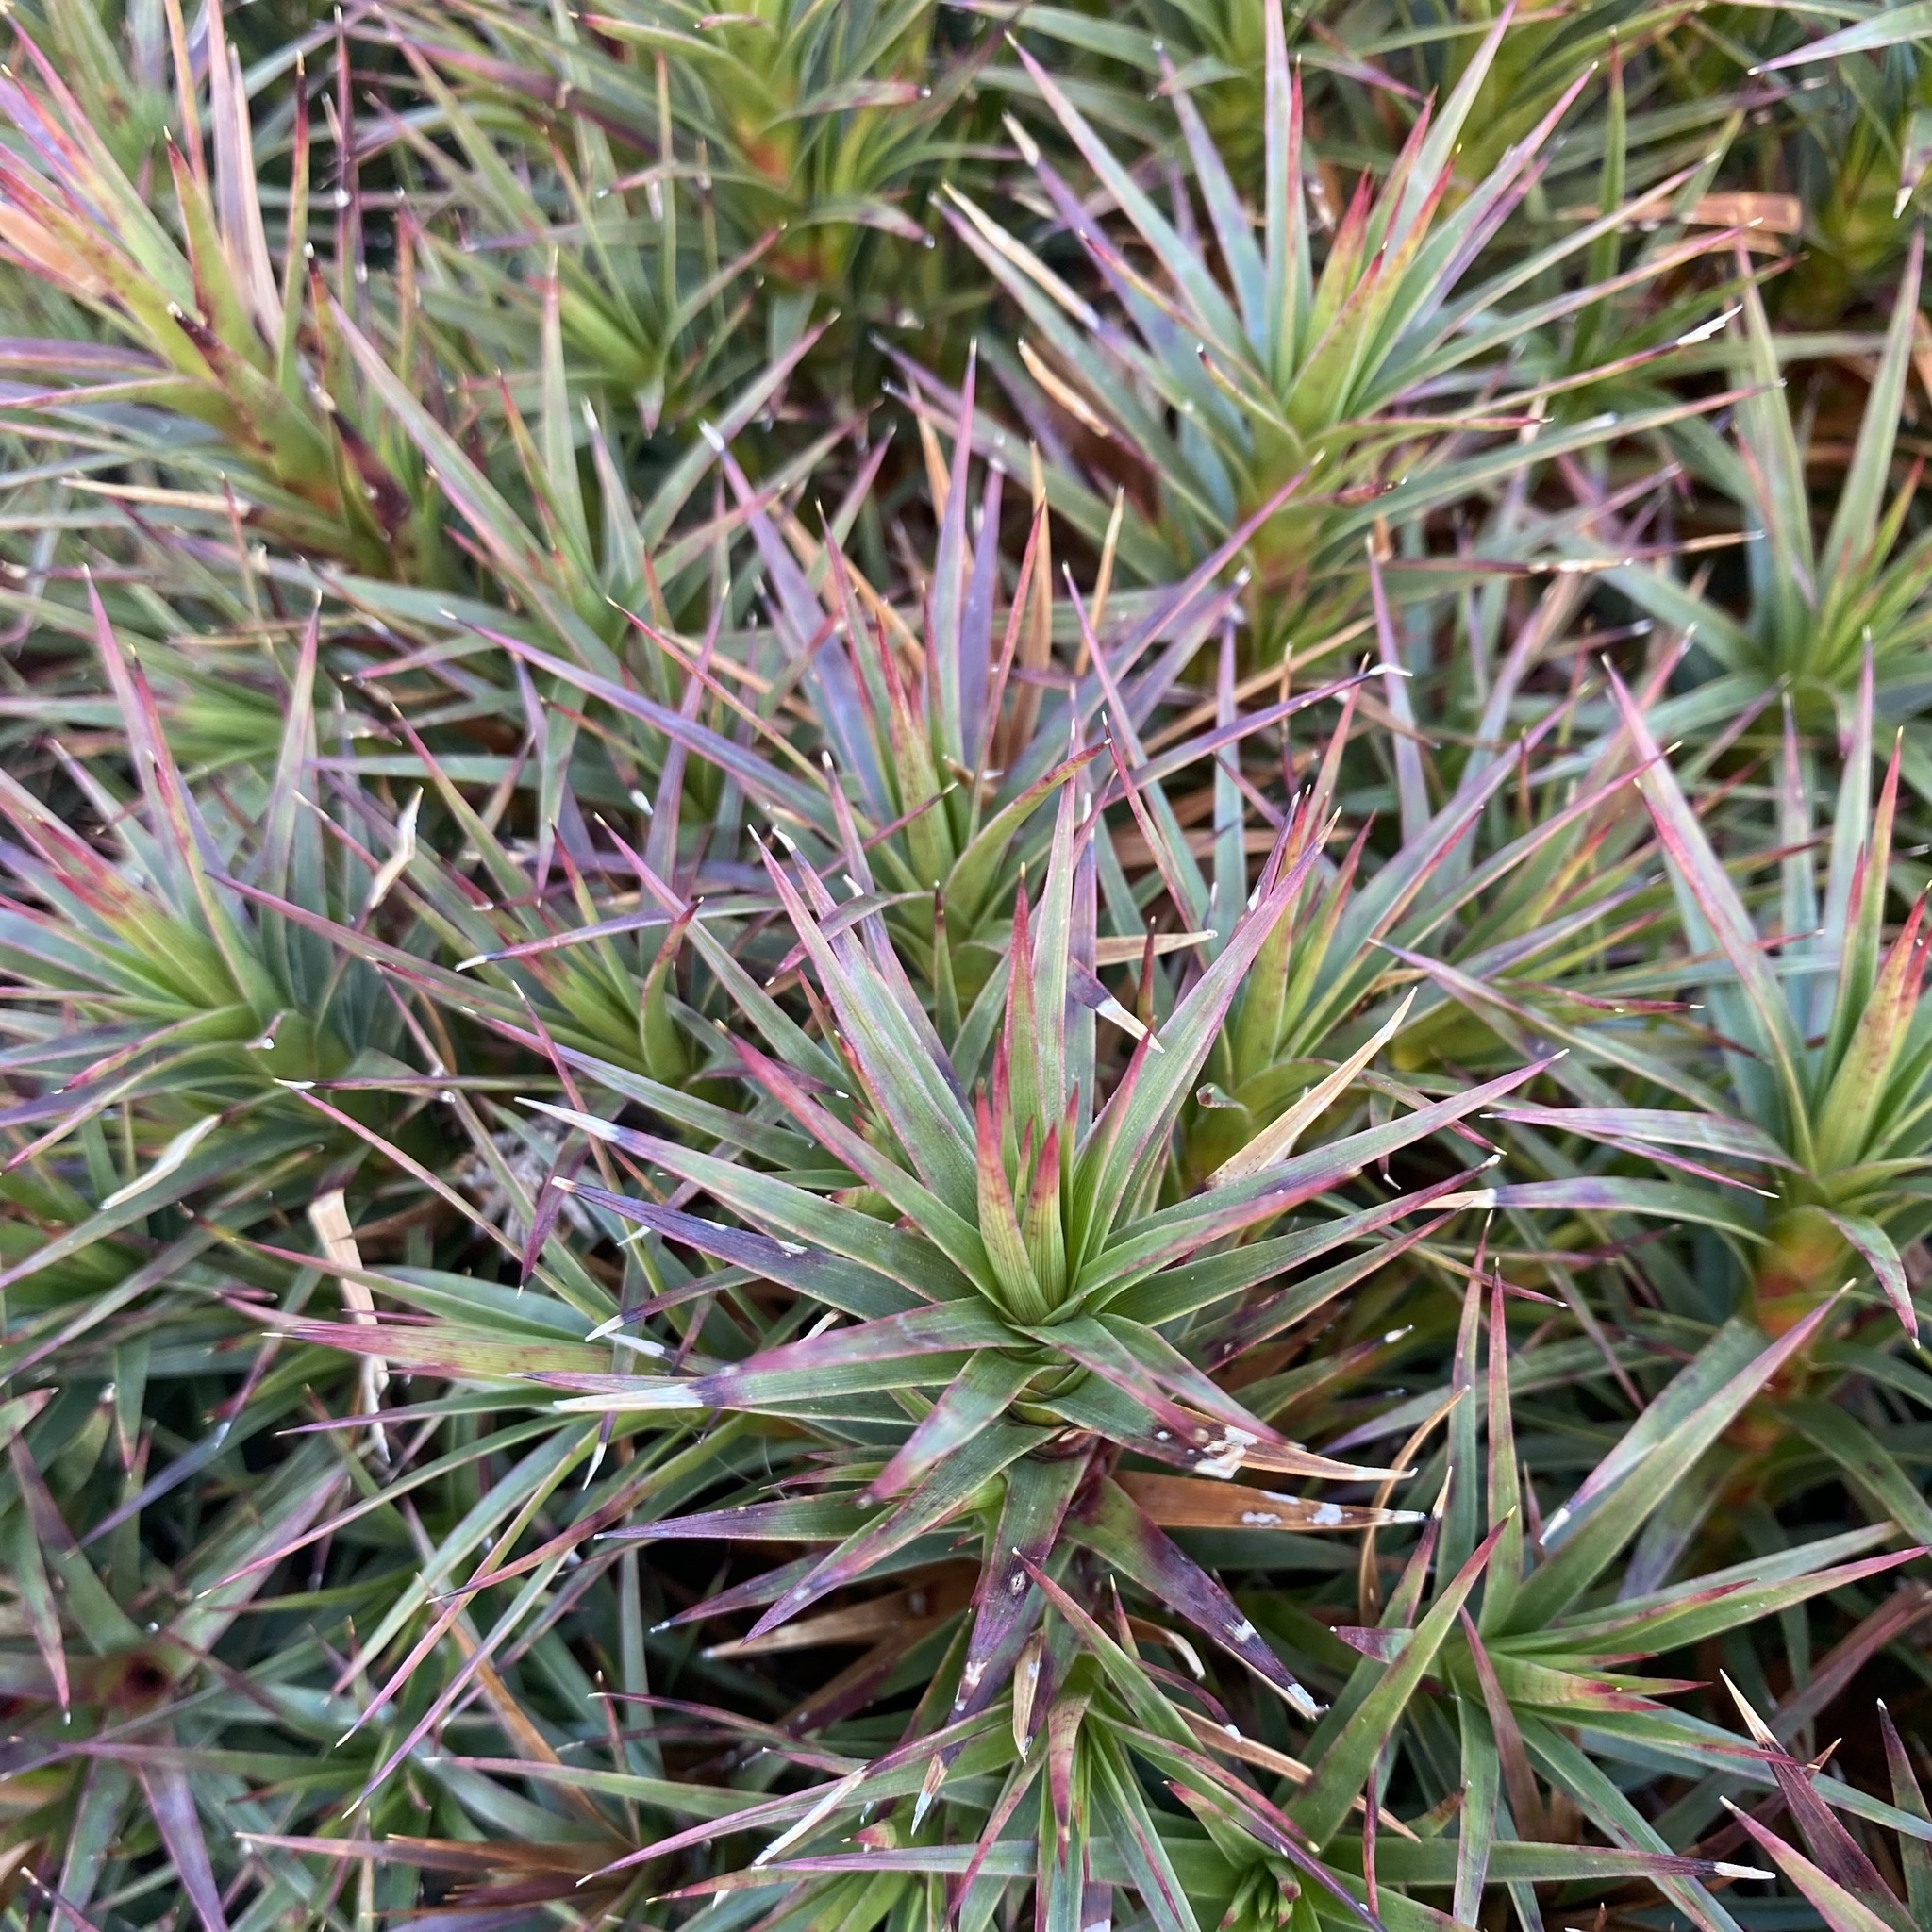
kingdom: Plantae
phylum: Tracheophyta
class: Magnoliopsida
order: Ericales
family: Ericaceae
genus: Dracophyllum
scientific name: Dracophyllum persistentifolium
